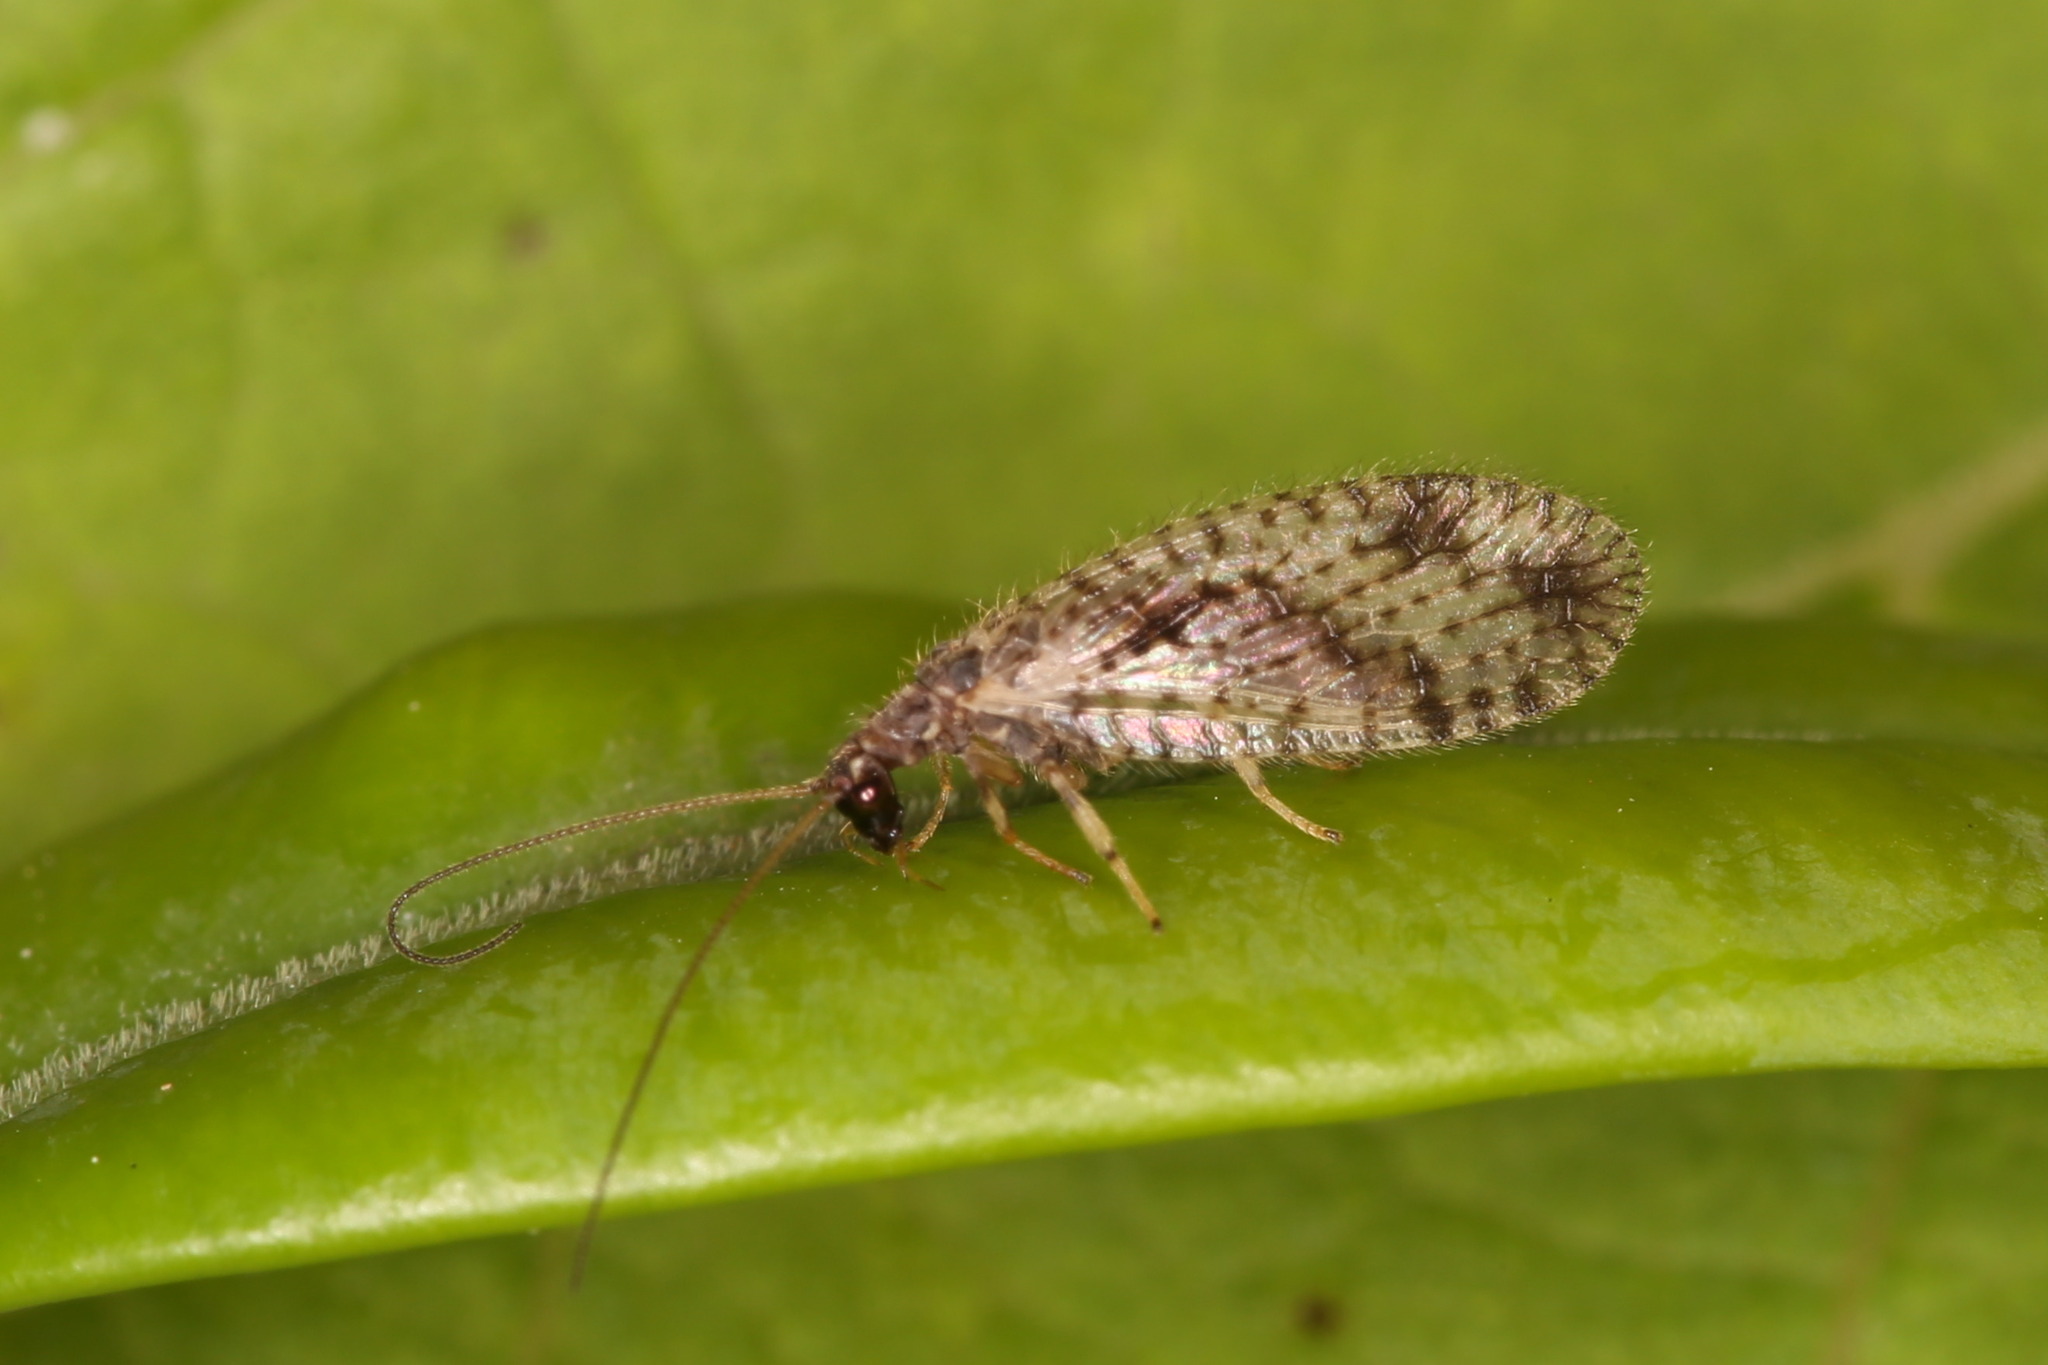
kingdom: Animalia
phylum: Arthropoda
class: Insecta
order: Neuroptera
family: Hemerobiidae
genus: Micromus
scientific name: Micromus variegatus
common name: Brown lacewing
